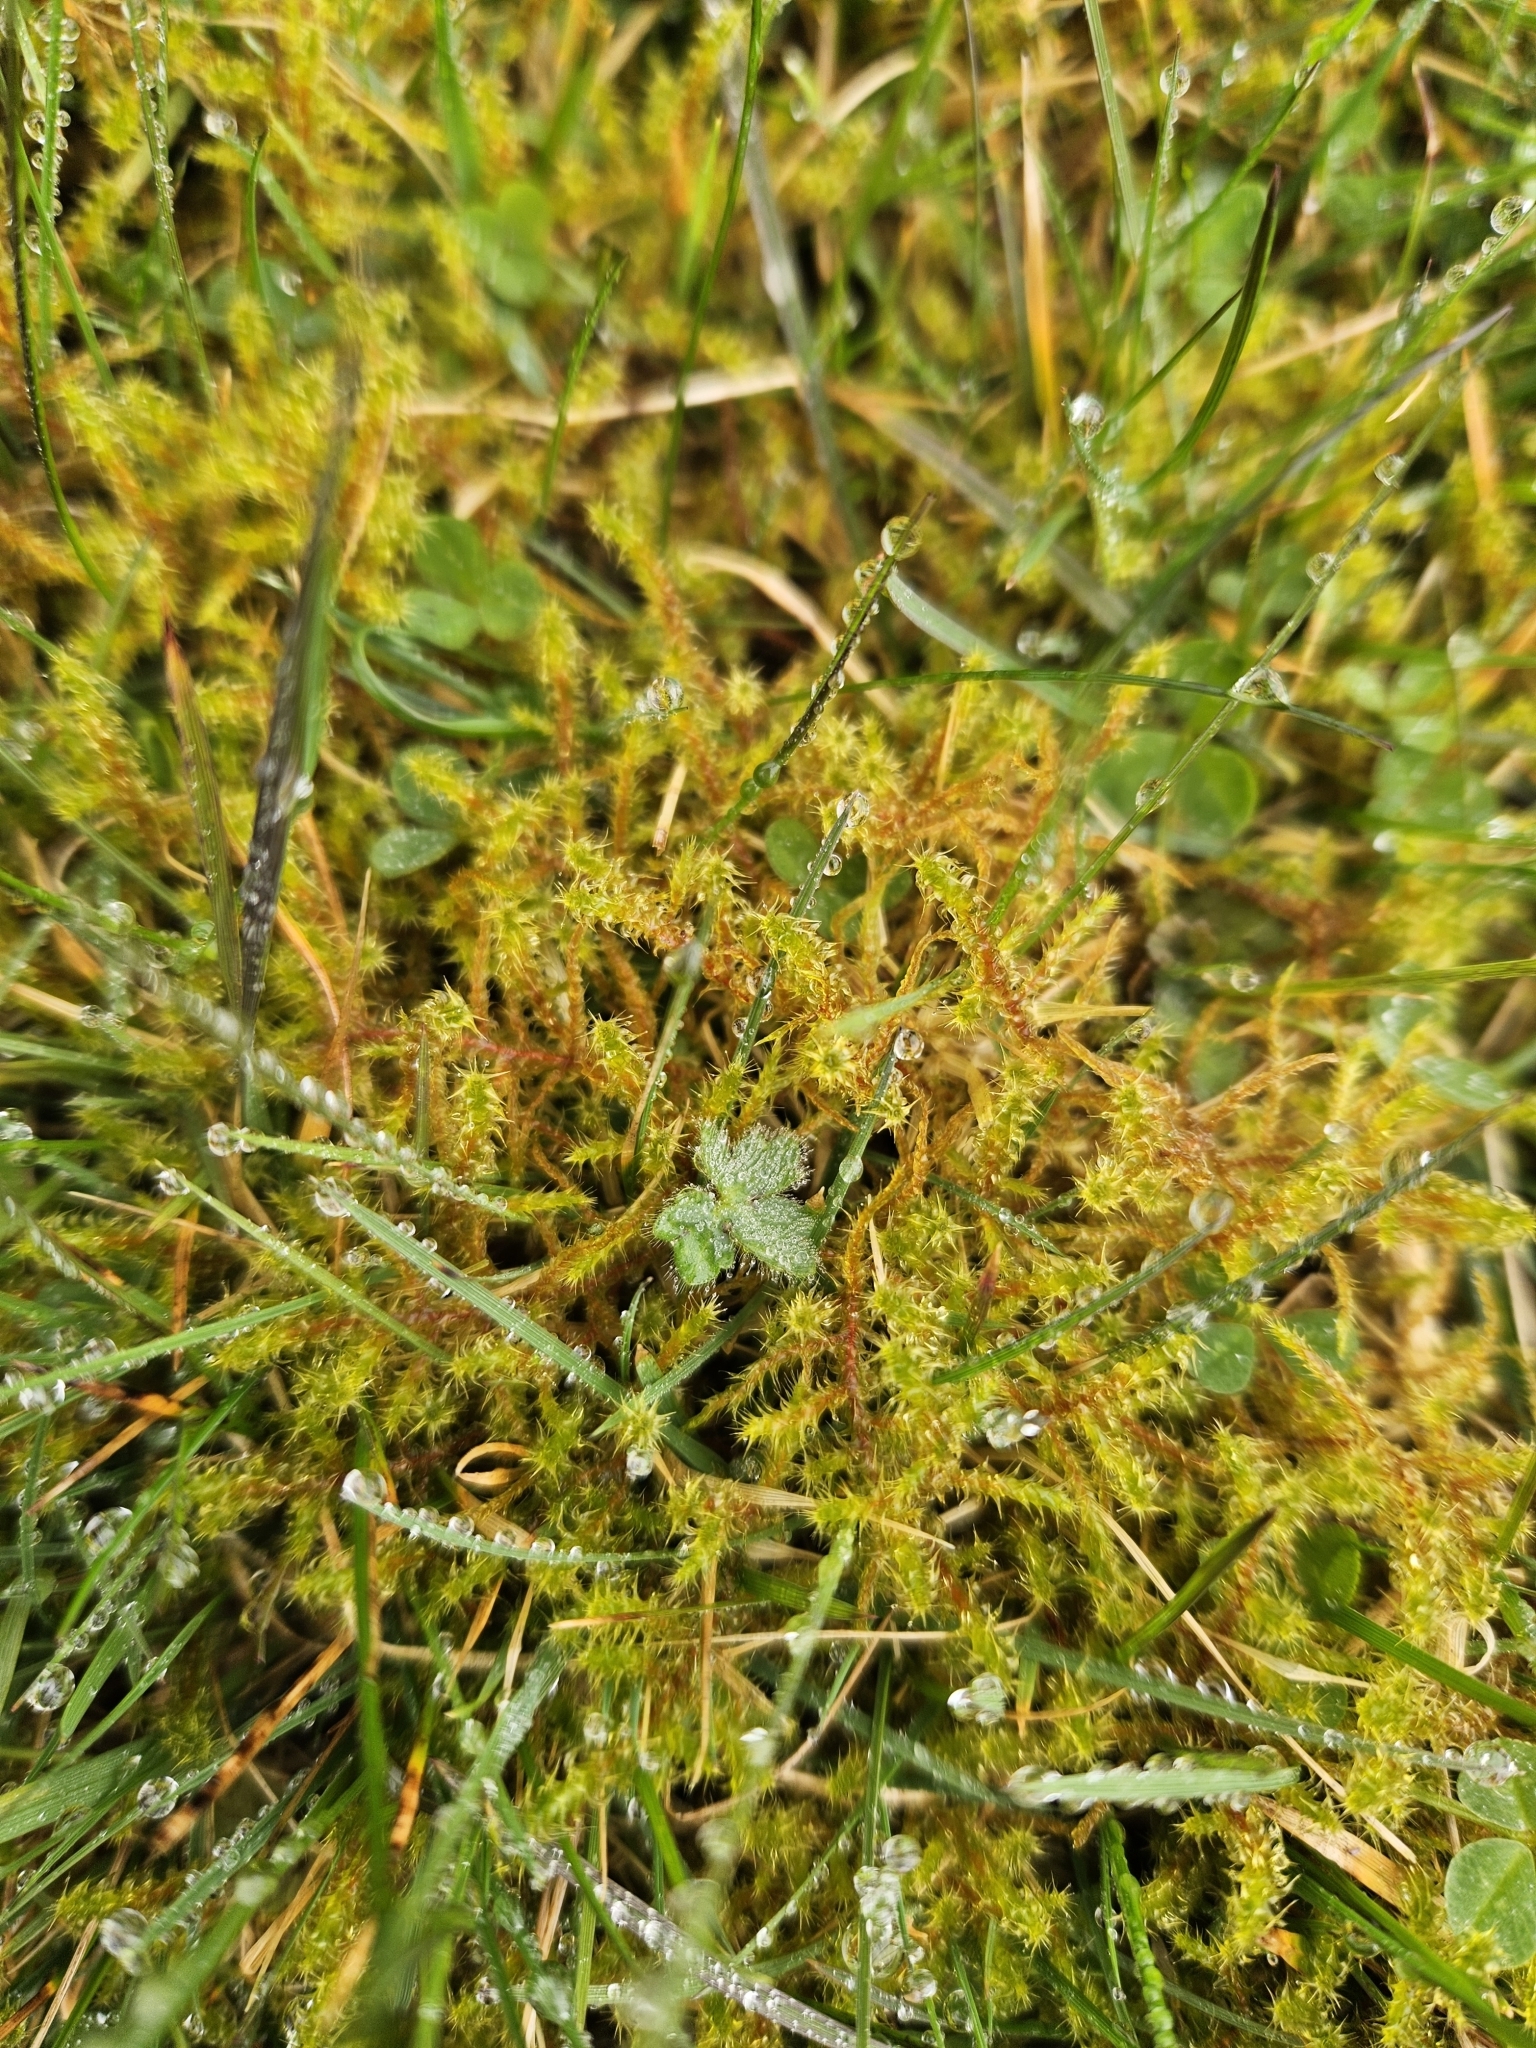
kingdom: Plantae
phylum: Bryophyta
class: Bryopsida
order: Hypnales
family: Hylocomiaceae
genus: Rhytidiadelphus
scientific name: Rhytidiadelphus squarrosus
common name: Springy turf-moss
